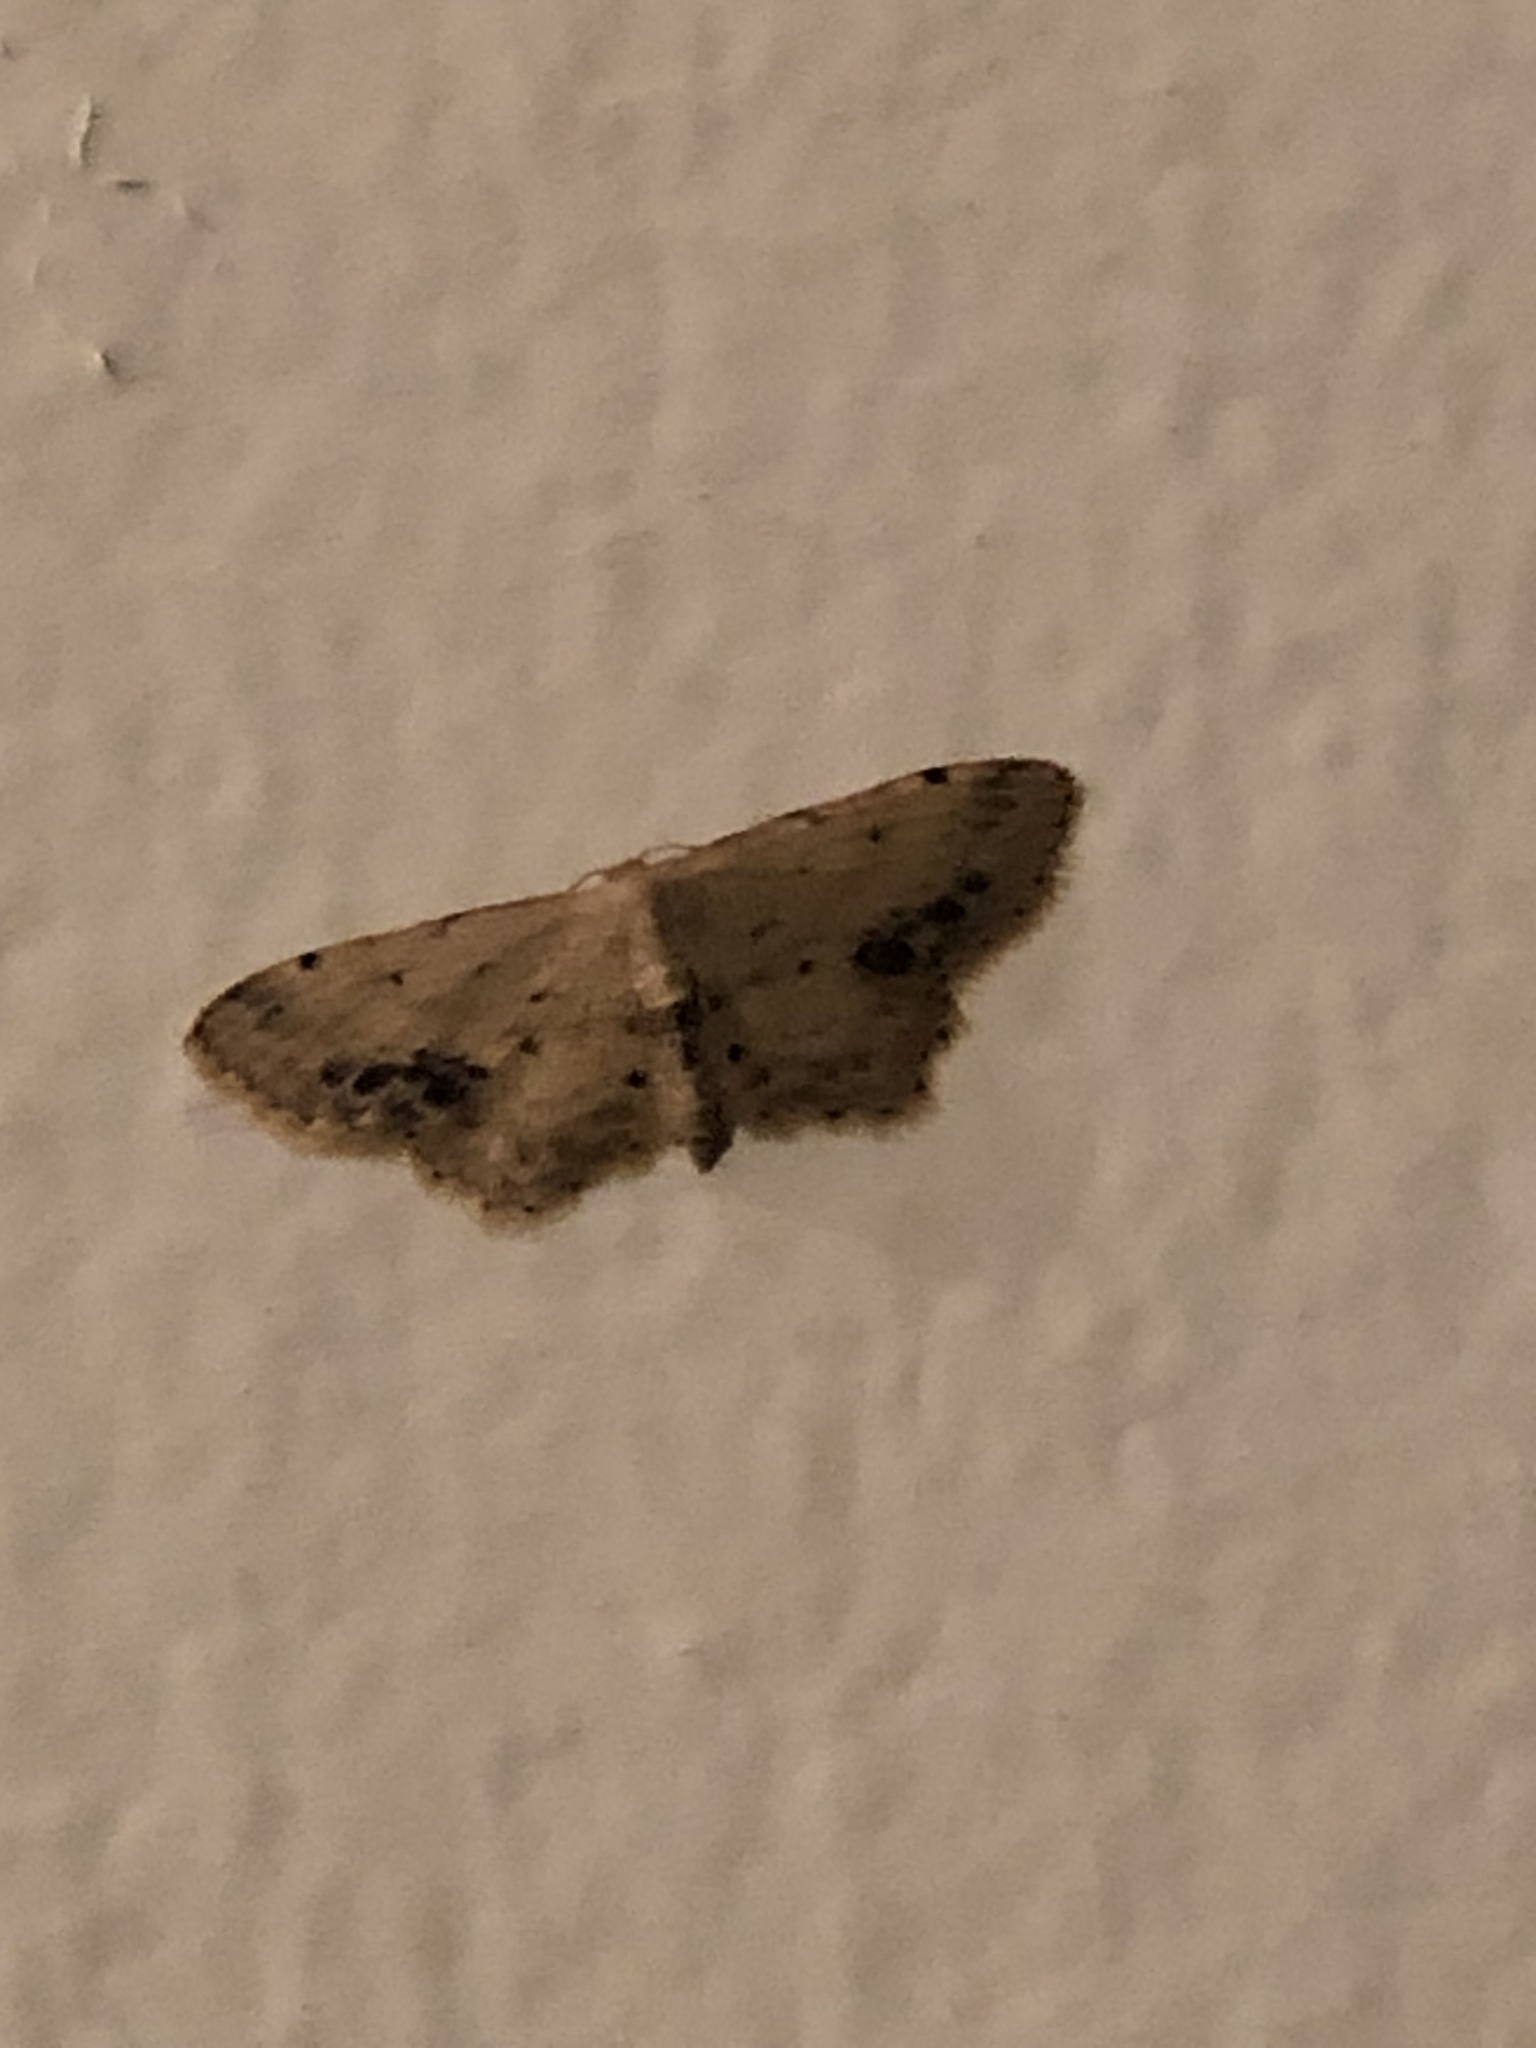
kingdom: Animalia
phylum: Arthropoda
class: Insecta
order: Lepidoptera
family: Geometridae
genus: Idaea
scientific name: Idaea dimidiata
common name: Single-dotted wave
